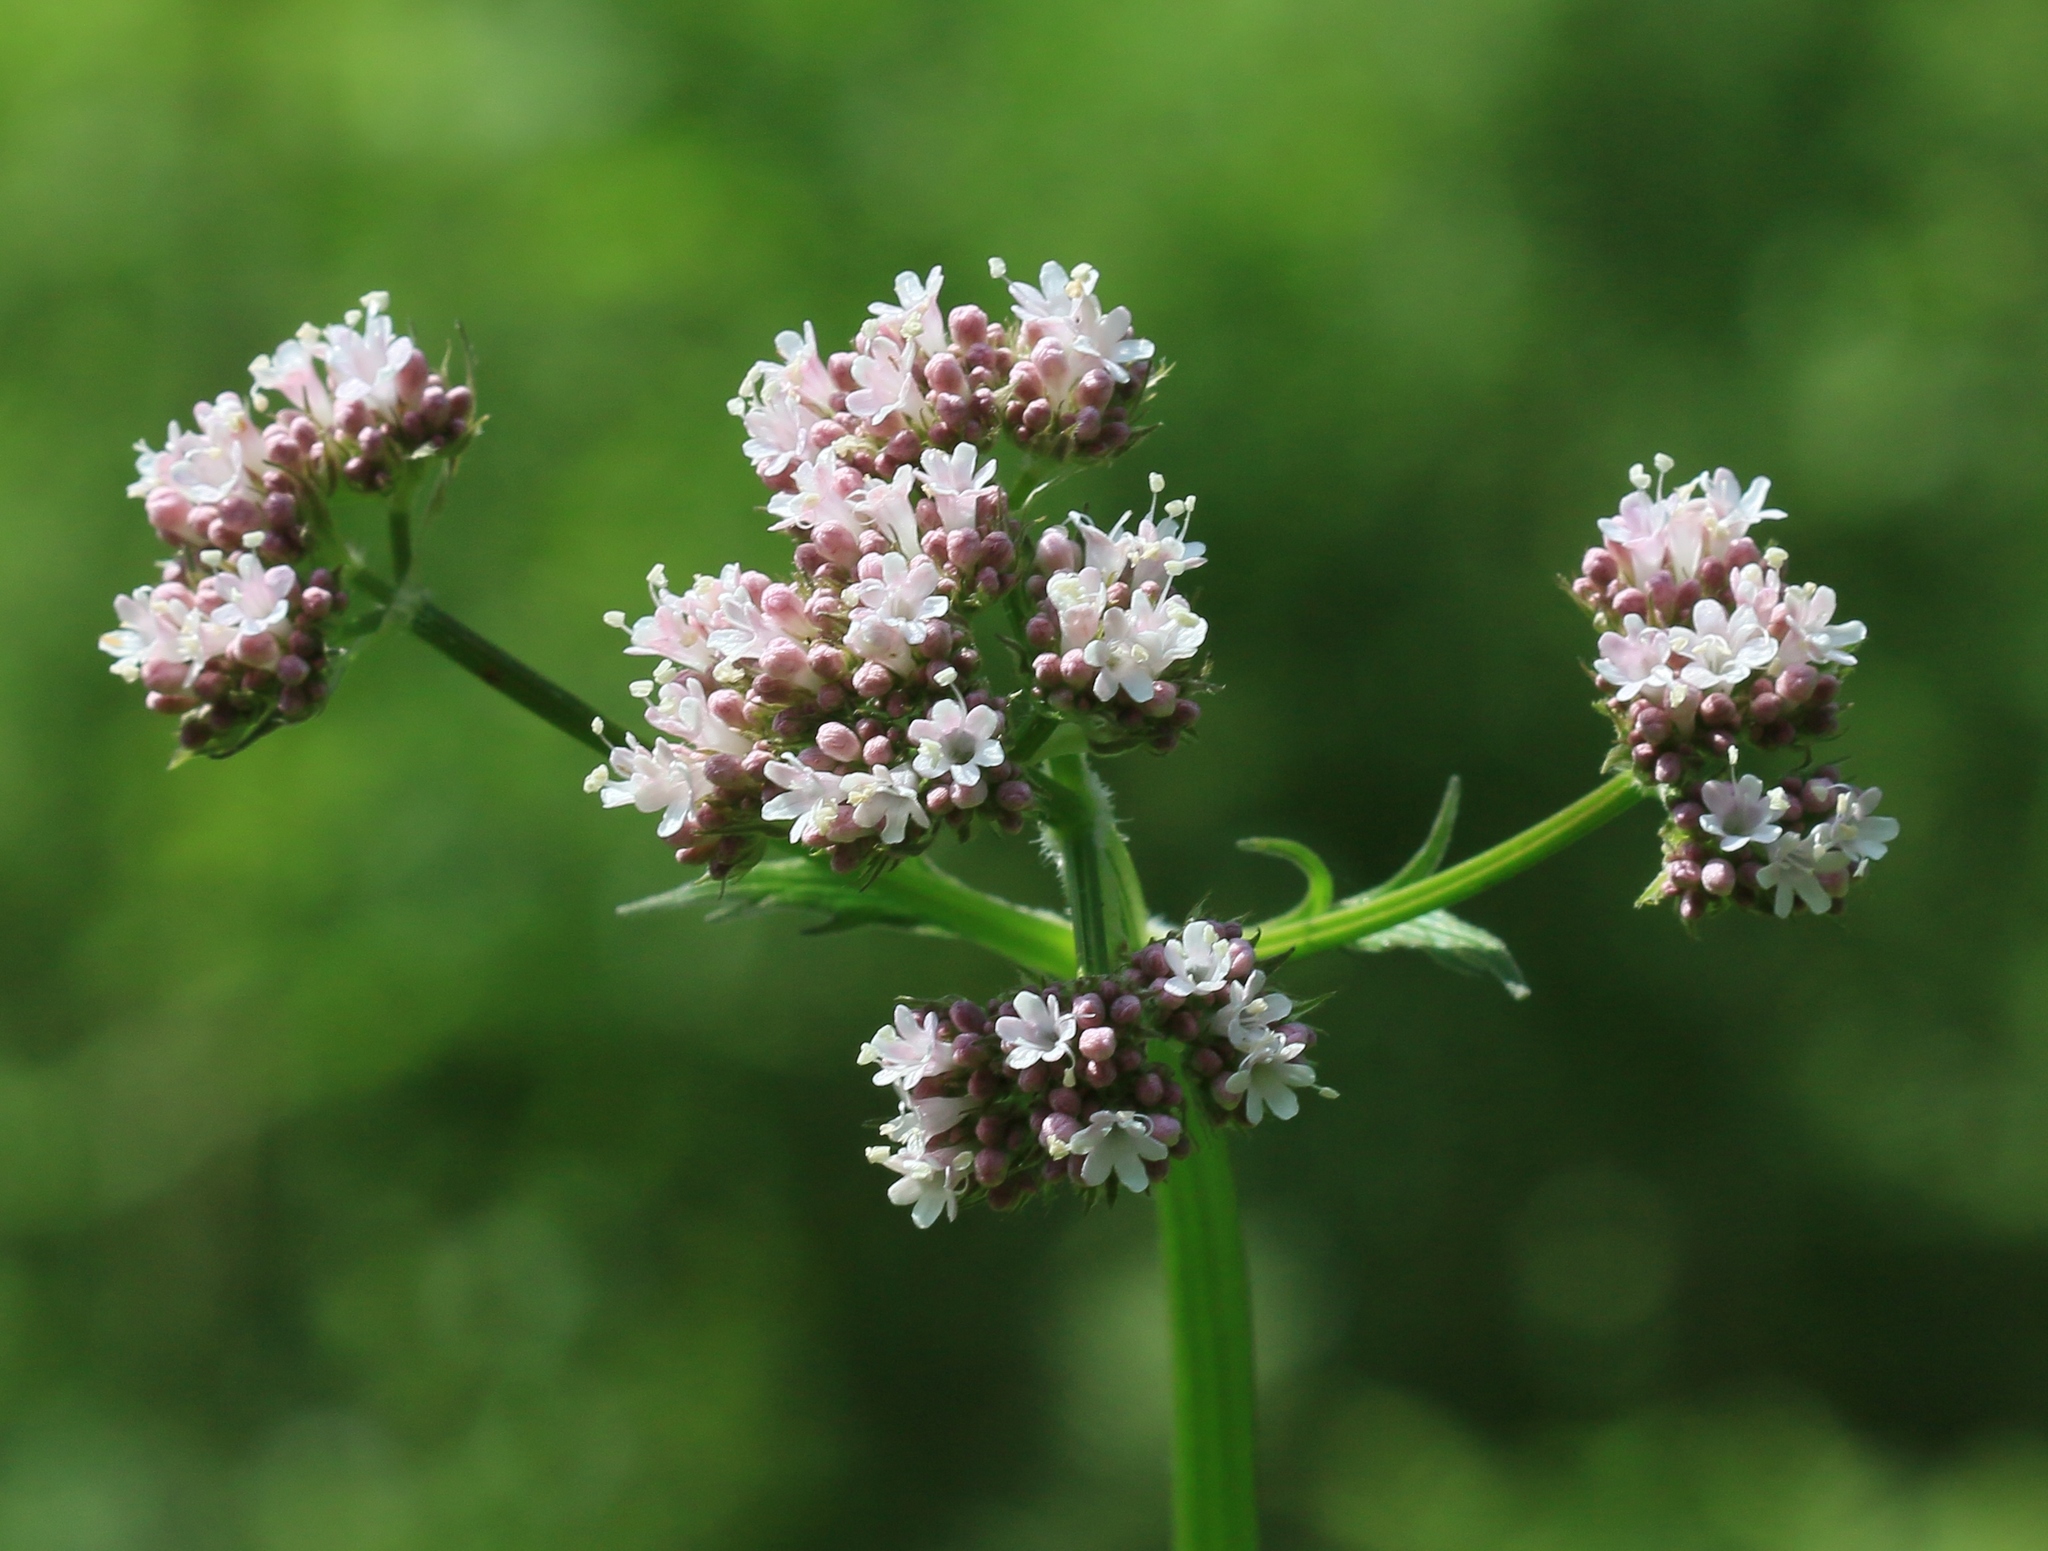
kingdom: Plantae
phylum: Tracheophyta
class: Magnoliopsida
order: Dipsacales
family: Caprifoliaceae
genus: Valeriana
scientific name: Valeriana officinalis
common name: Common valerian
